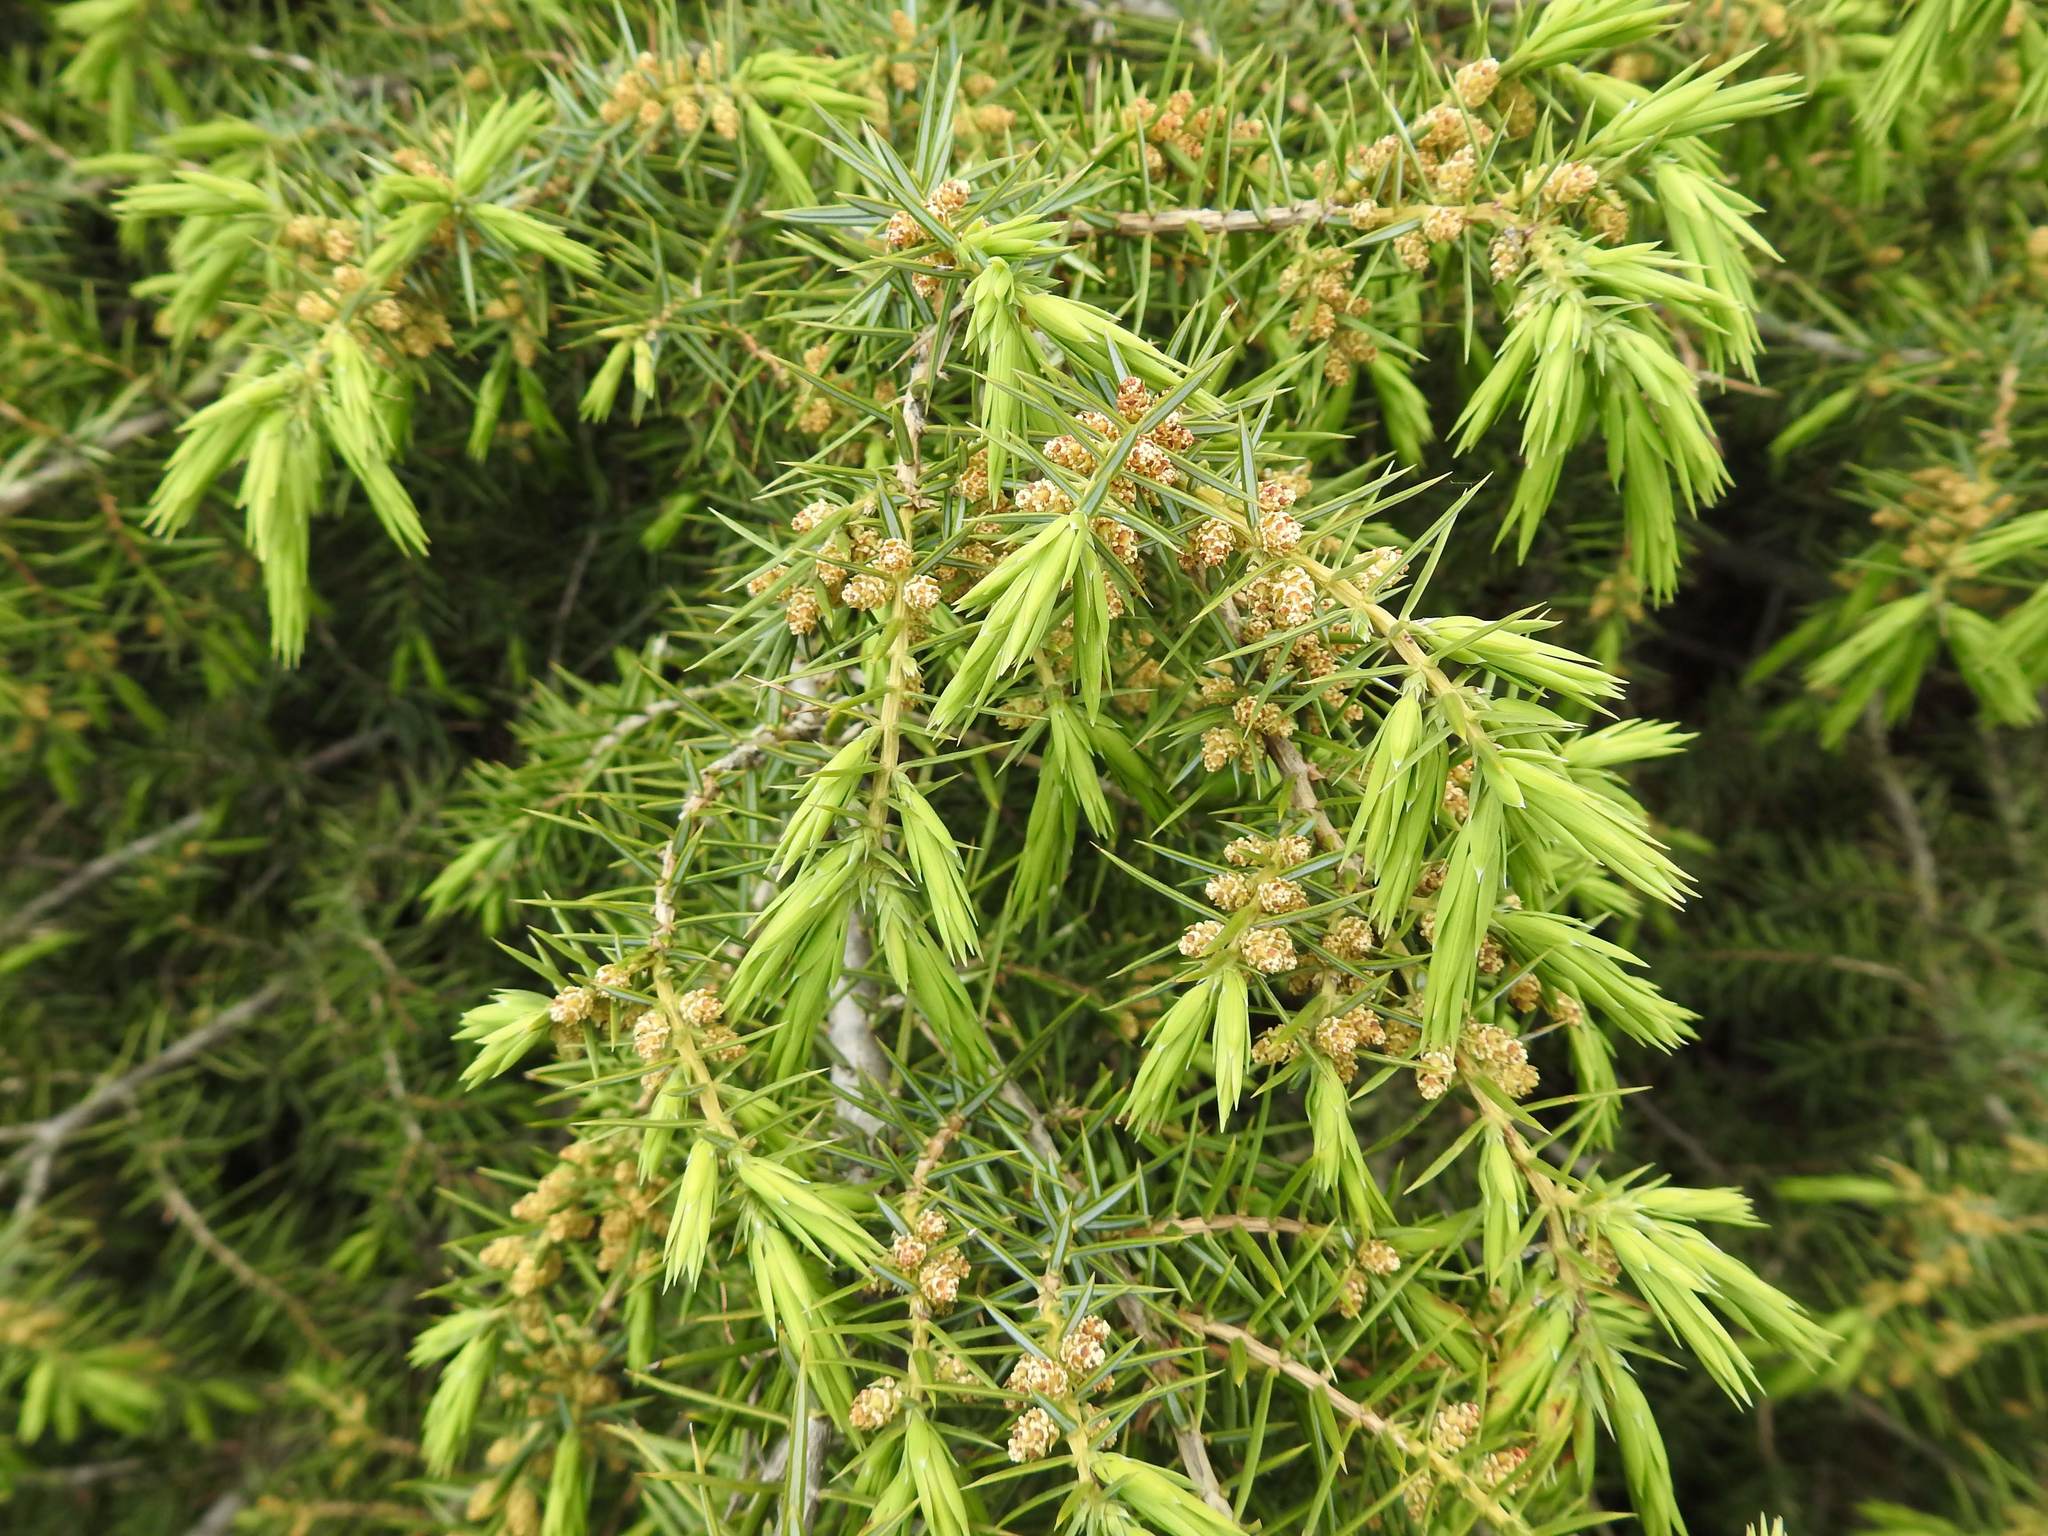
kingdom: Plantae
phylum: Tracheophyta
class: Pinopsida
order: Pinales
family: Cupressaceae
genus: Juniperus
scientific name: Juniperus communis
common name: Common juniper
